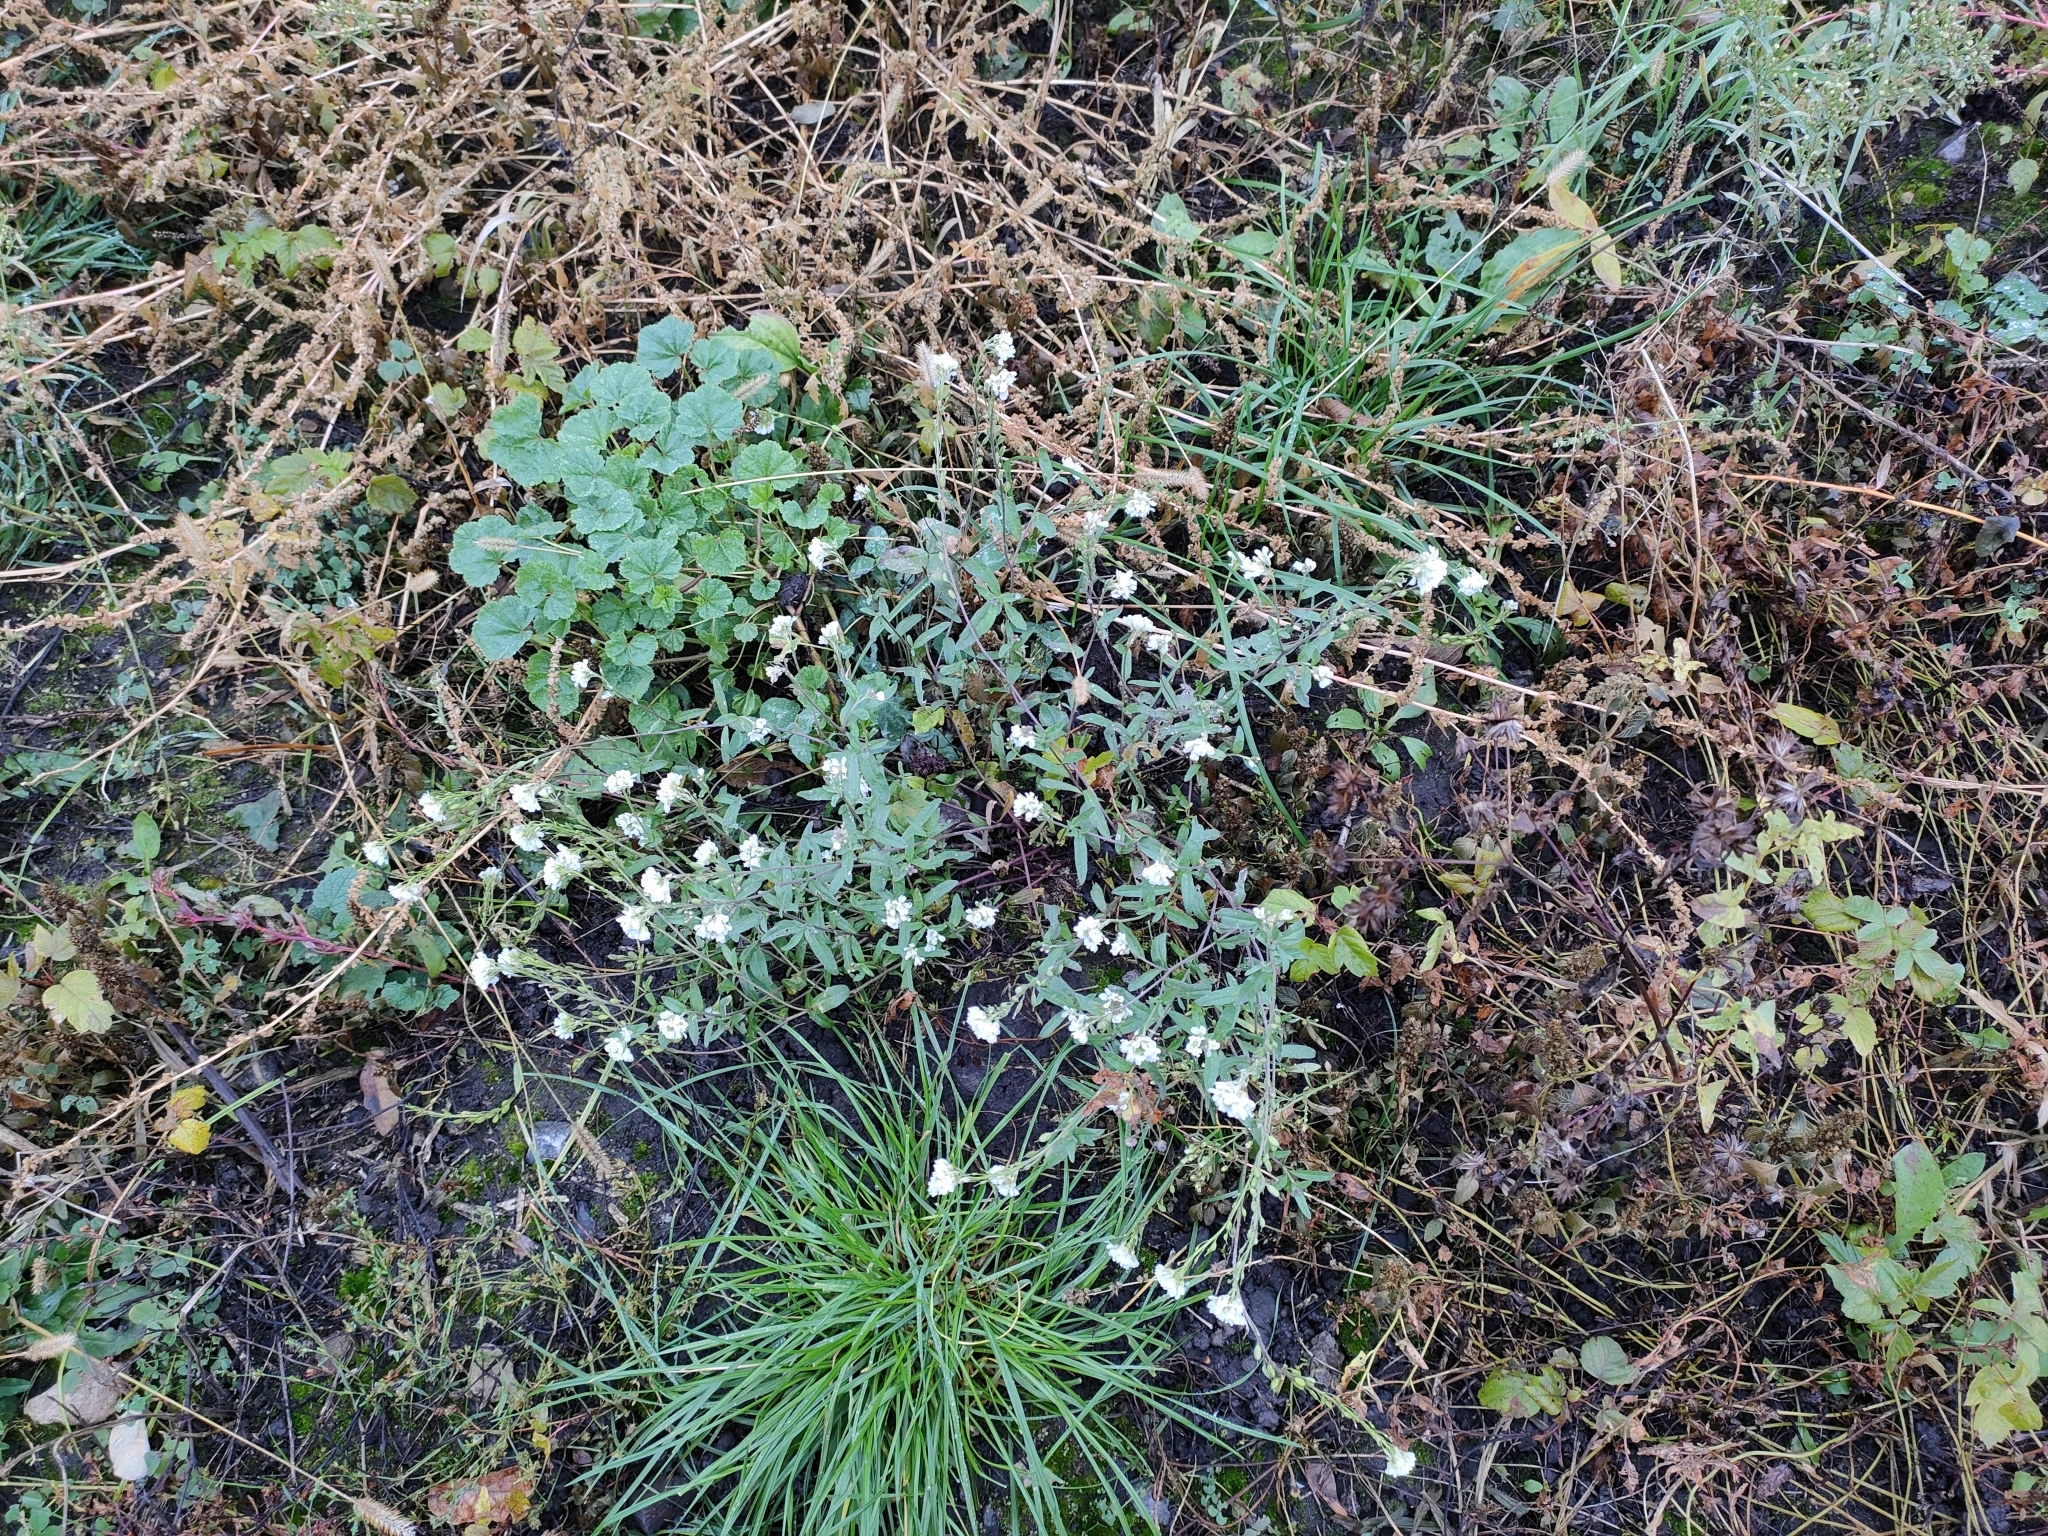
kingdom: Plantae
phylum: Tracheophyta
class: Magnoliopsida
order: Brassicales
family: Brassicaceae
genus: Berteroa
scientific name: Berteroa incana
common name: Hoary alison
